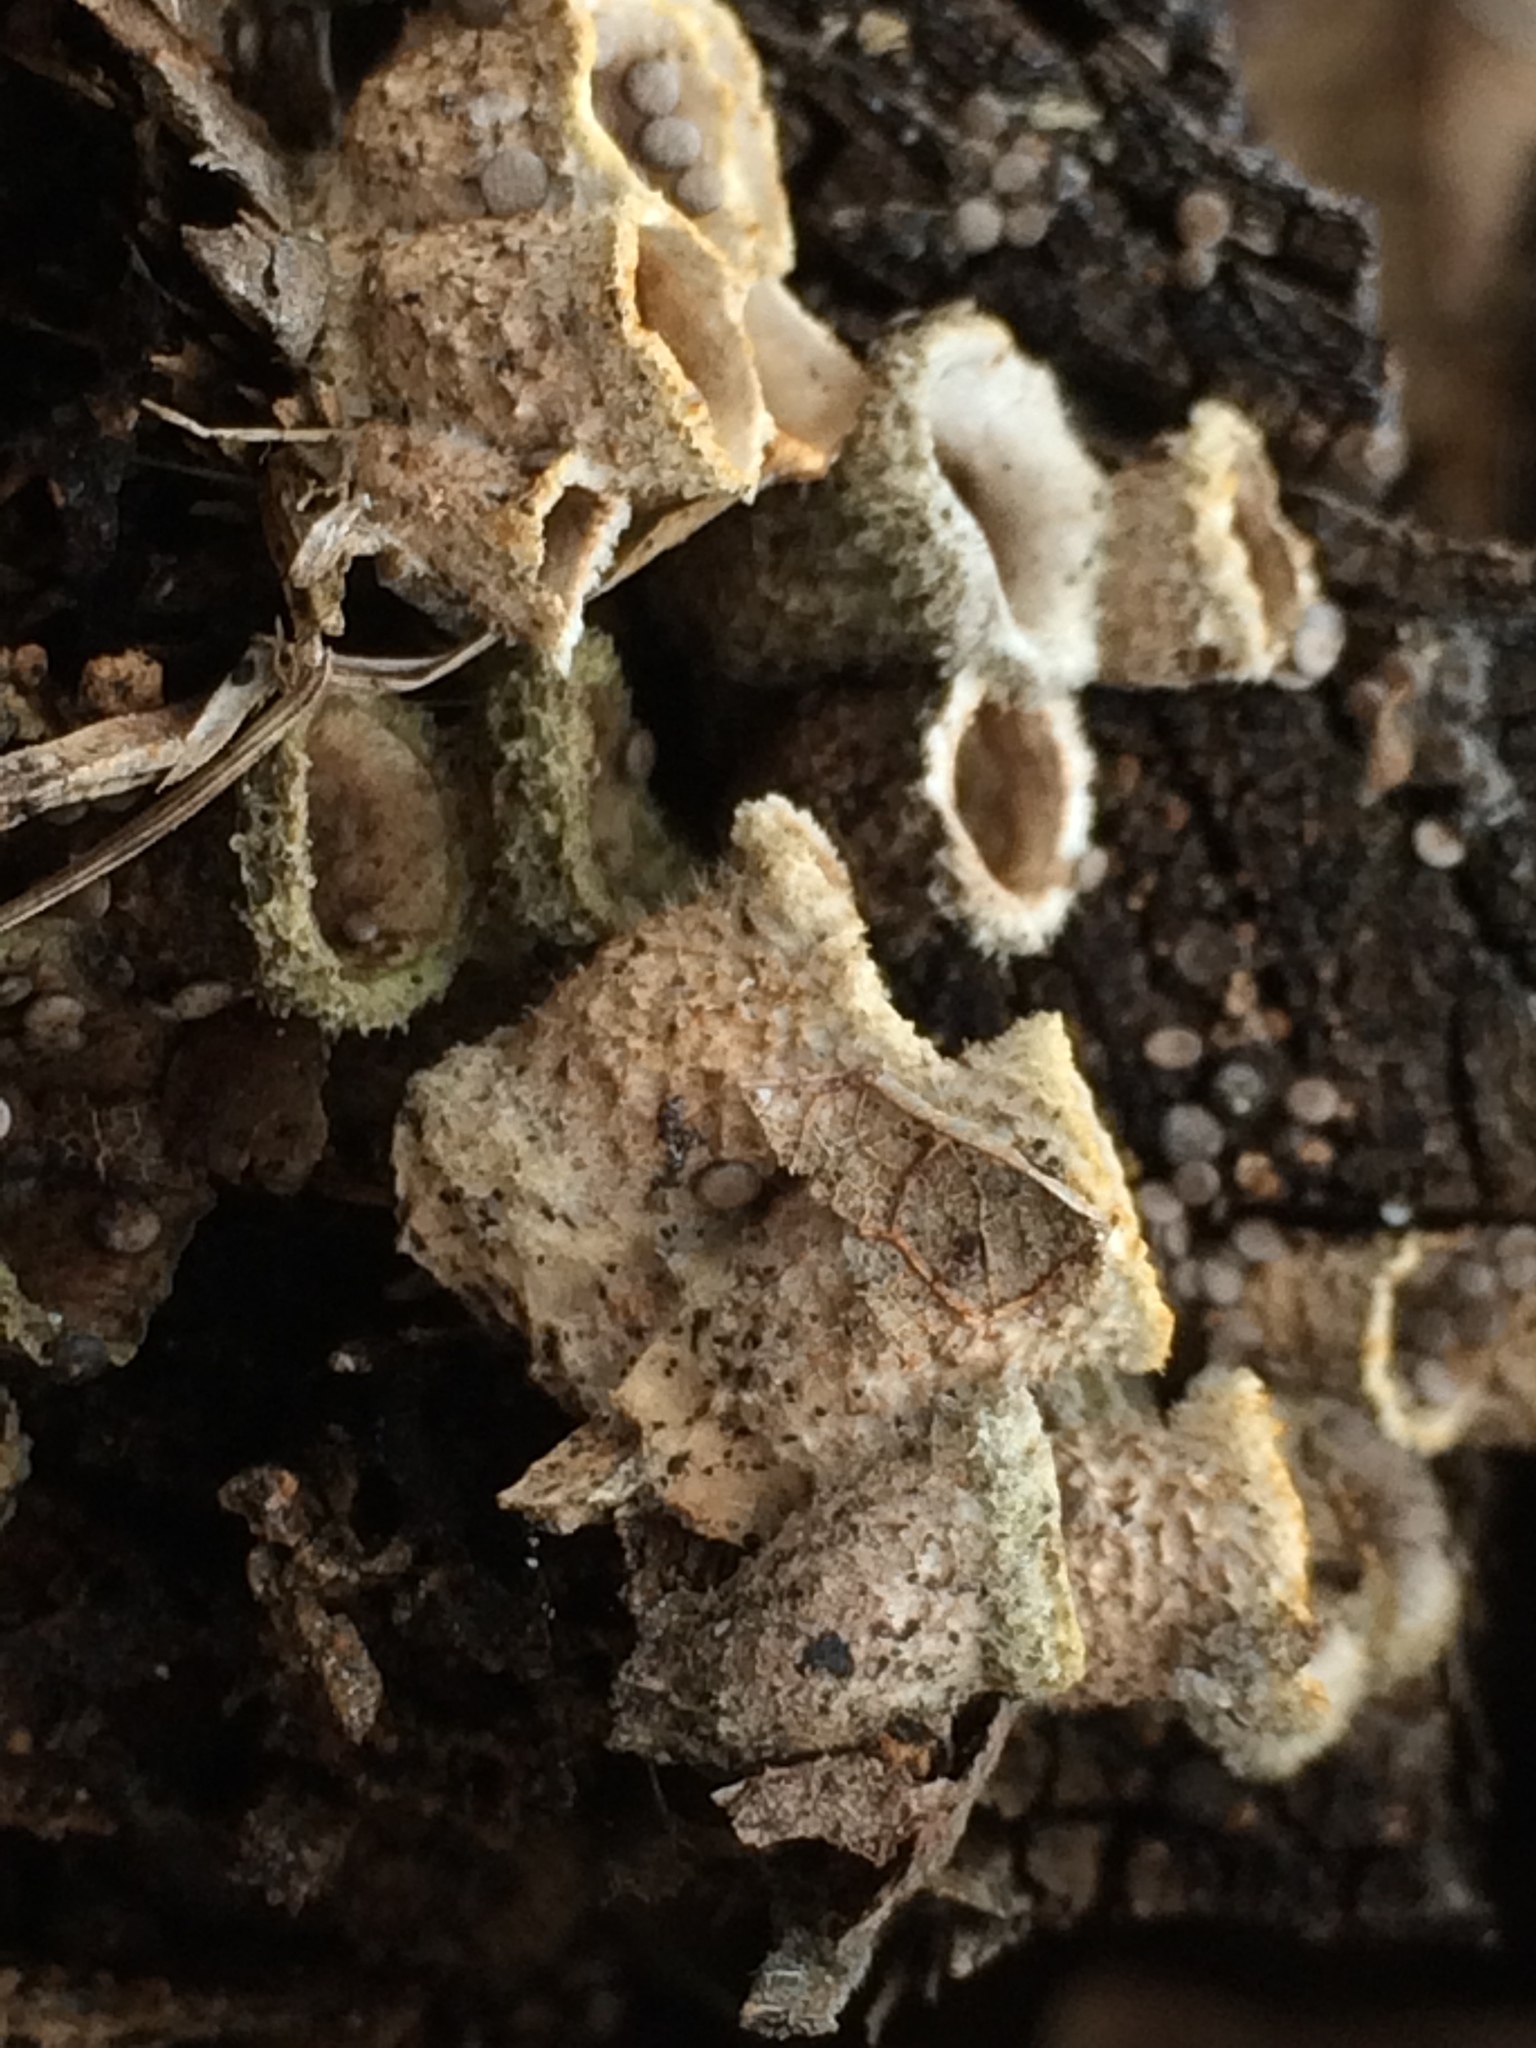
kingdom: Fungi
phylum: Basidiomycota
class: Agaricomycetes
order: Agaricales
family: Agaricaceae
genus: Nidula
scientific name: Nidula niveotomentosa
